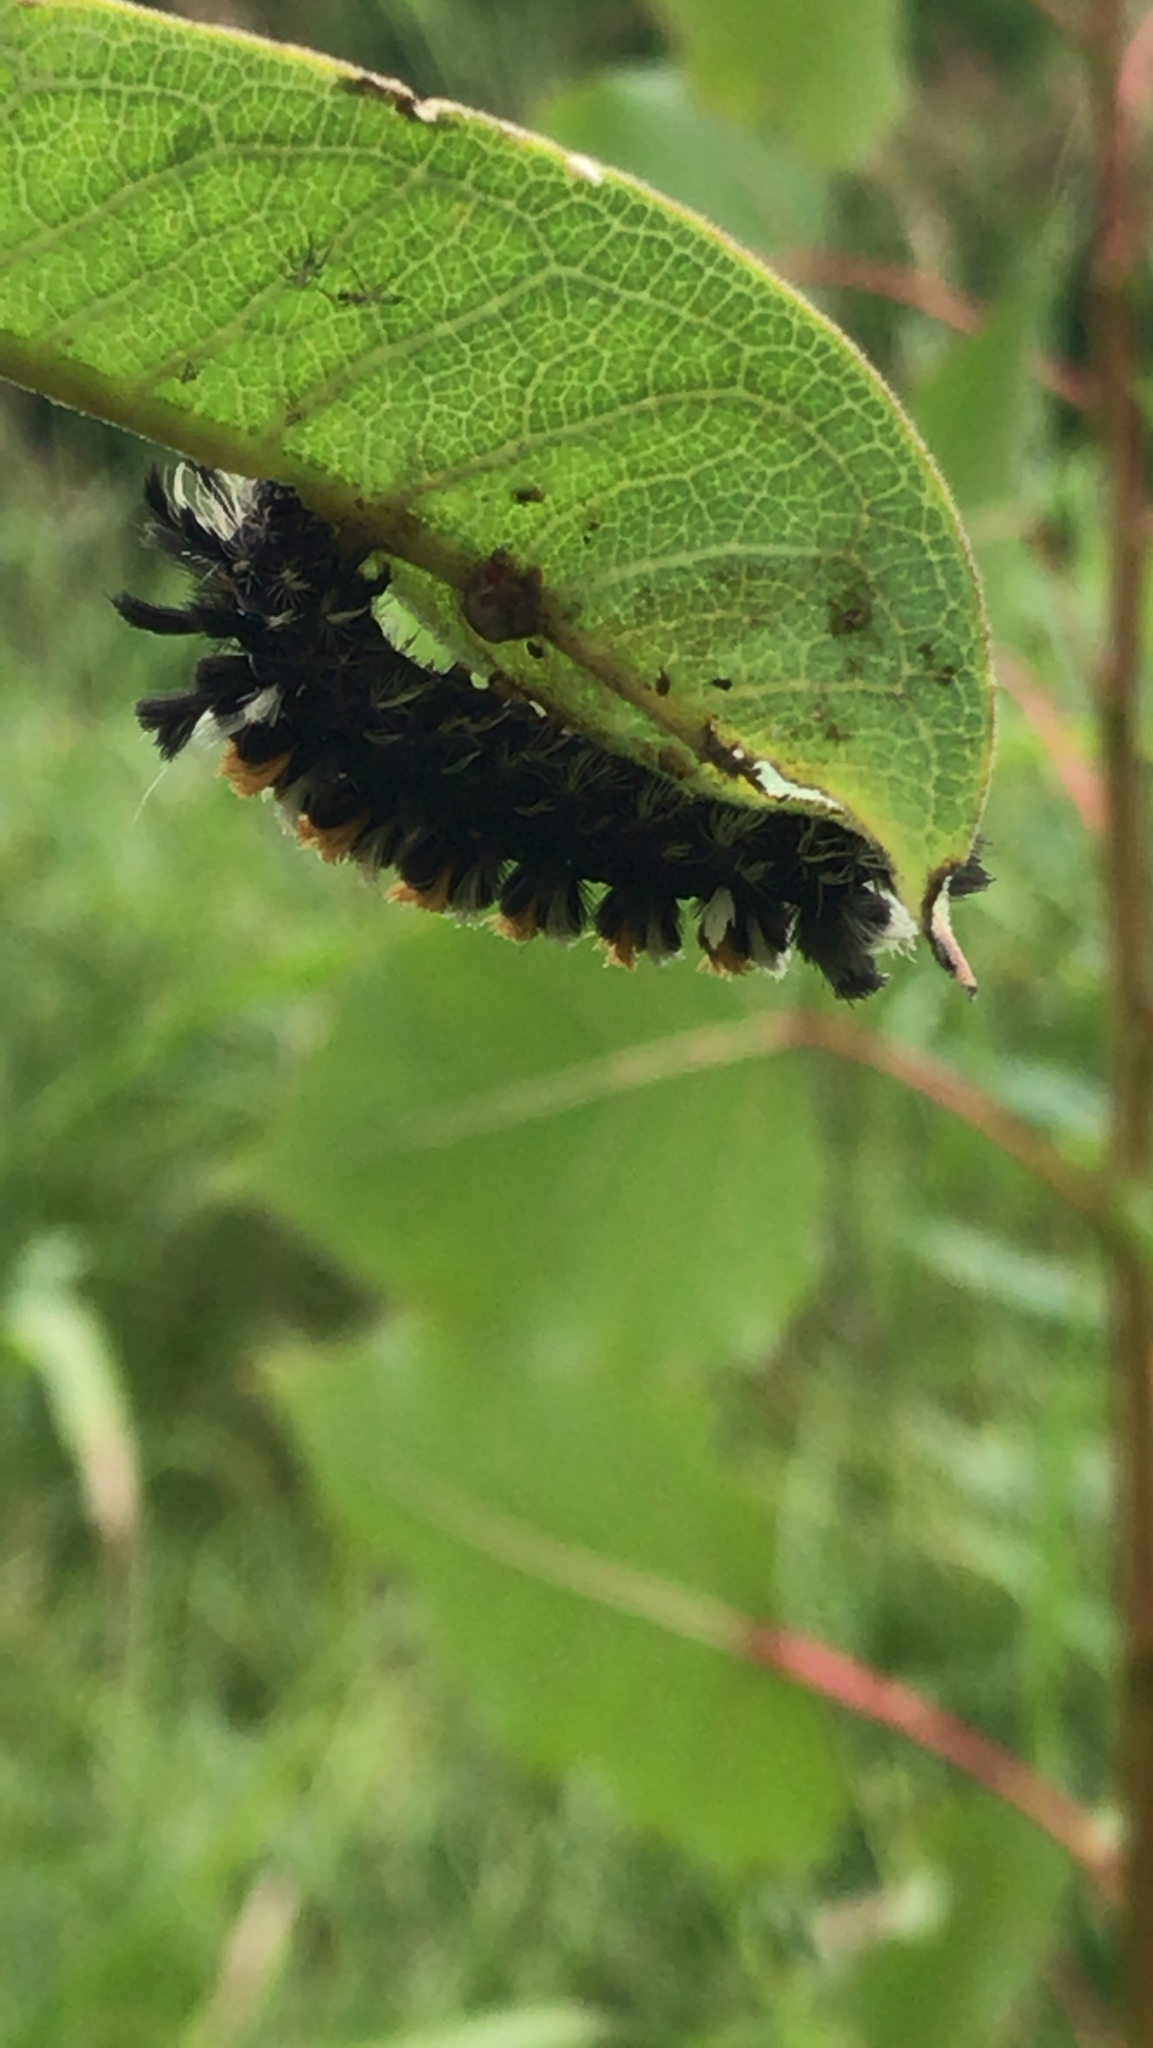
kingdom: Animalia
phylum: Arthropoda
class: Insecta
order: Lepidoptera
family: Erebidae
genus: Euchaetes
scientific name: Euchaetes egle
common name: Milkweed tussock moth
